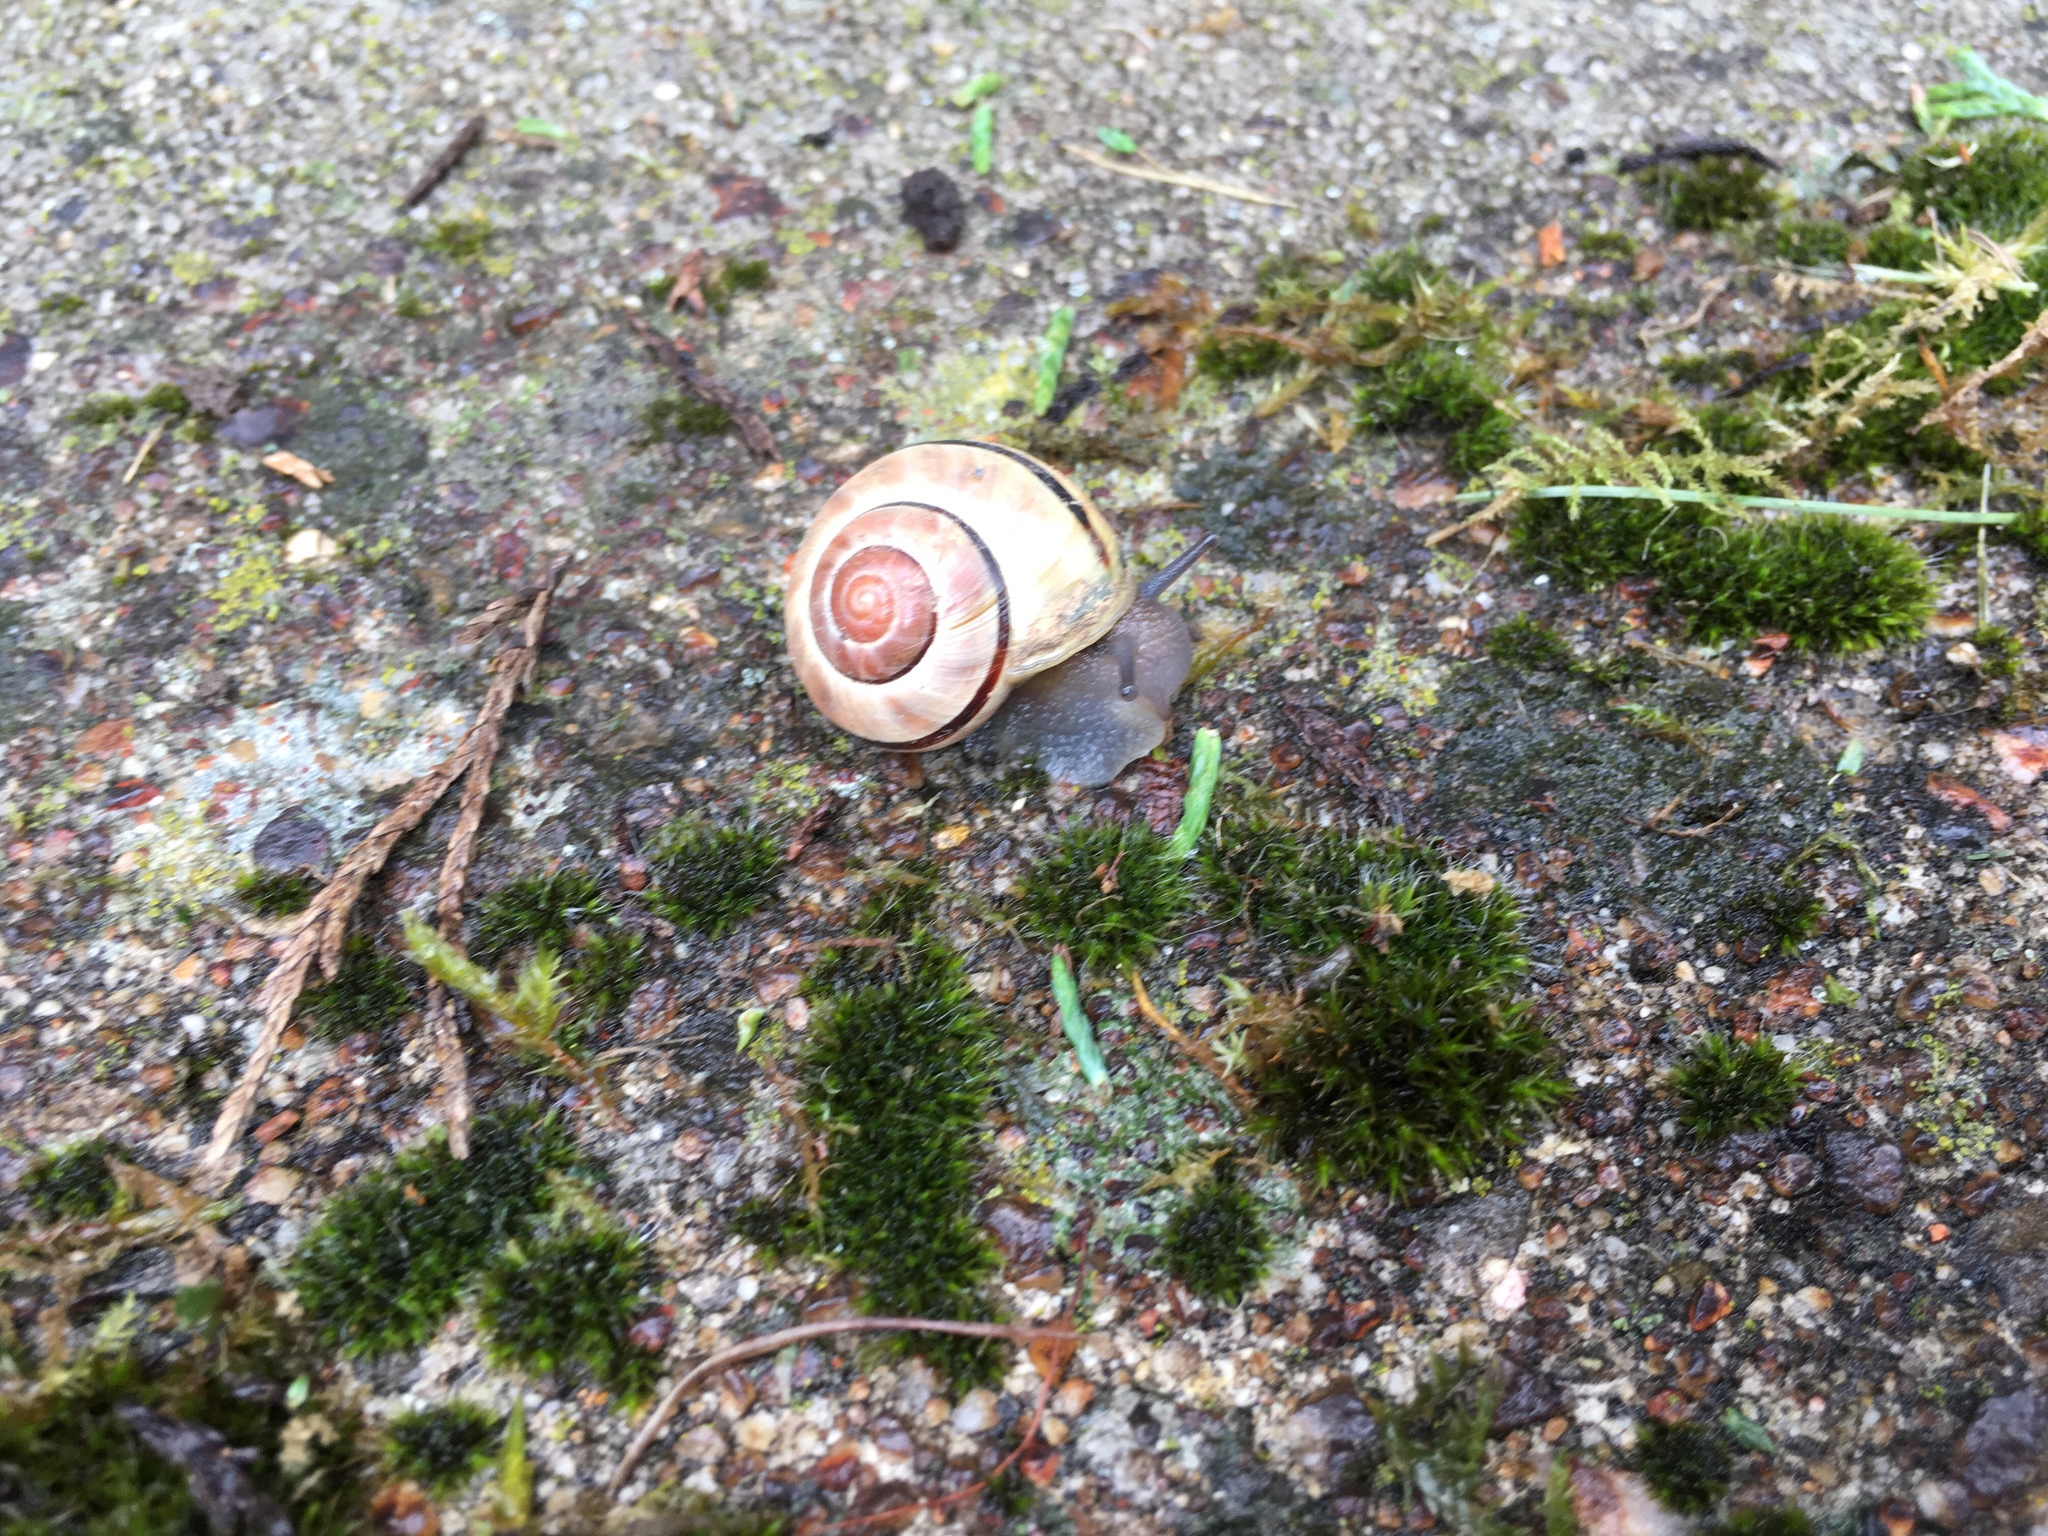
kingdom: Animalia
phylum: Mollusca
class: Gastropoda
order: Stylommatophora
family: Helicidae
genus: Cepaea
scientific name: Cepaea nemoralis
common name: Grovesnail
